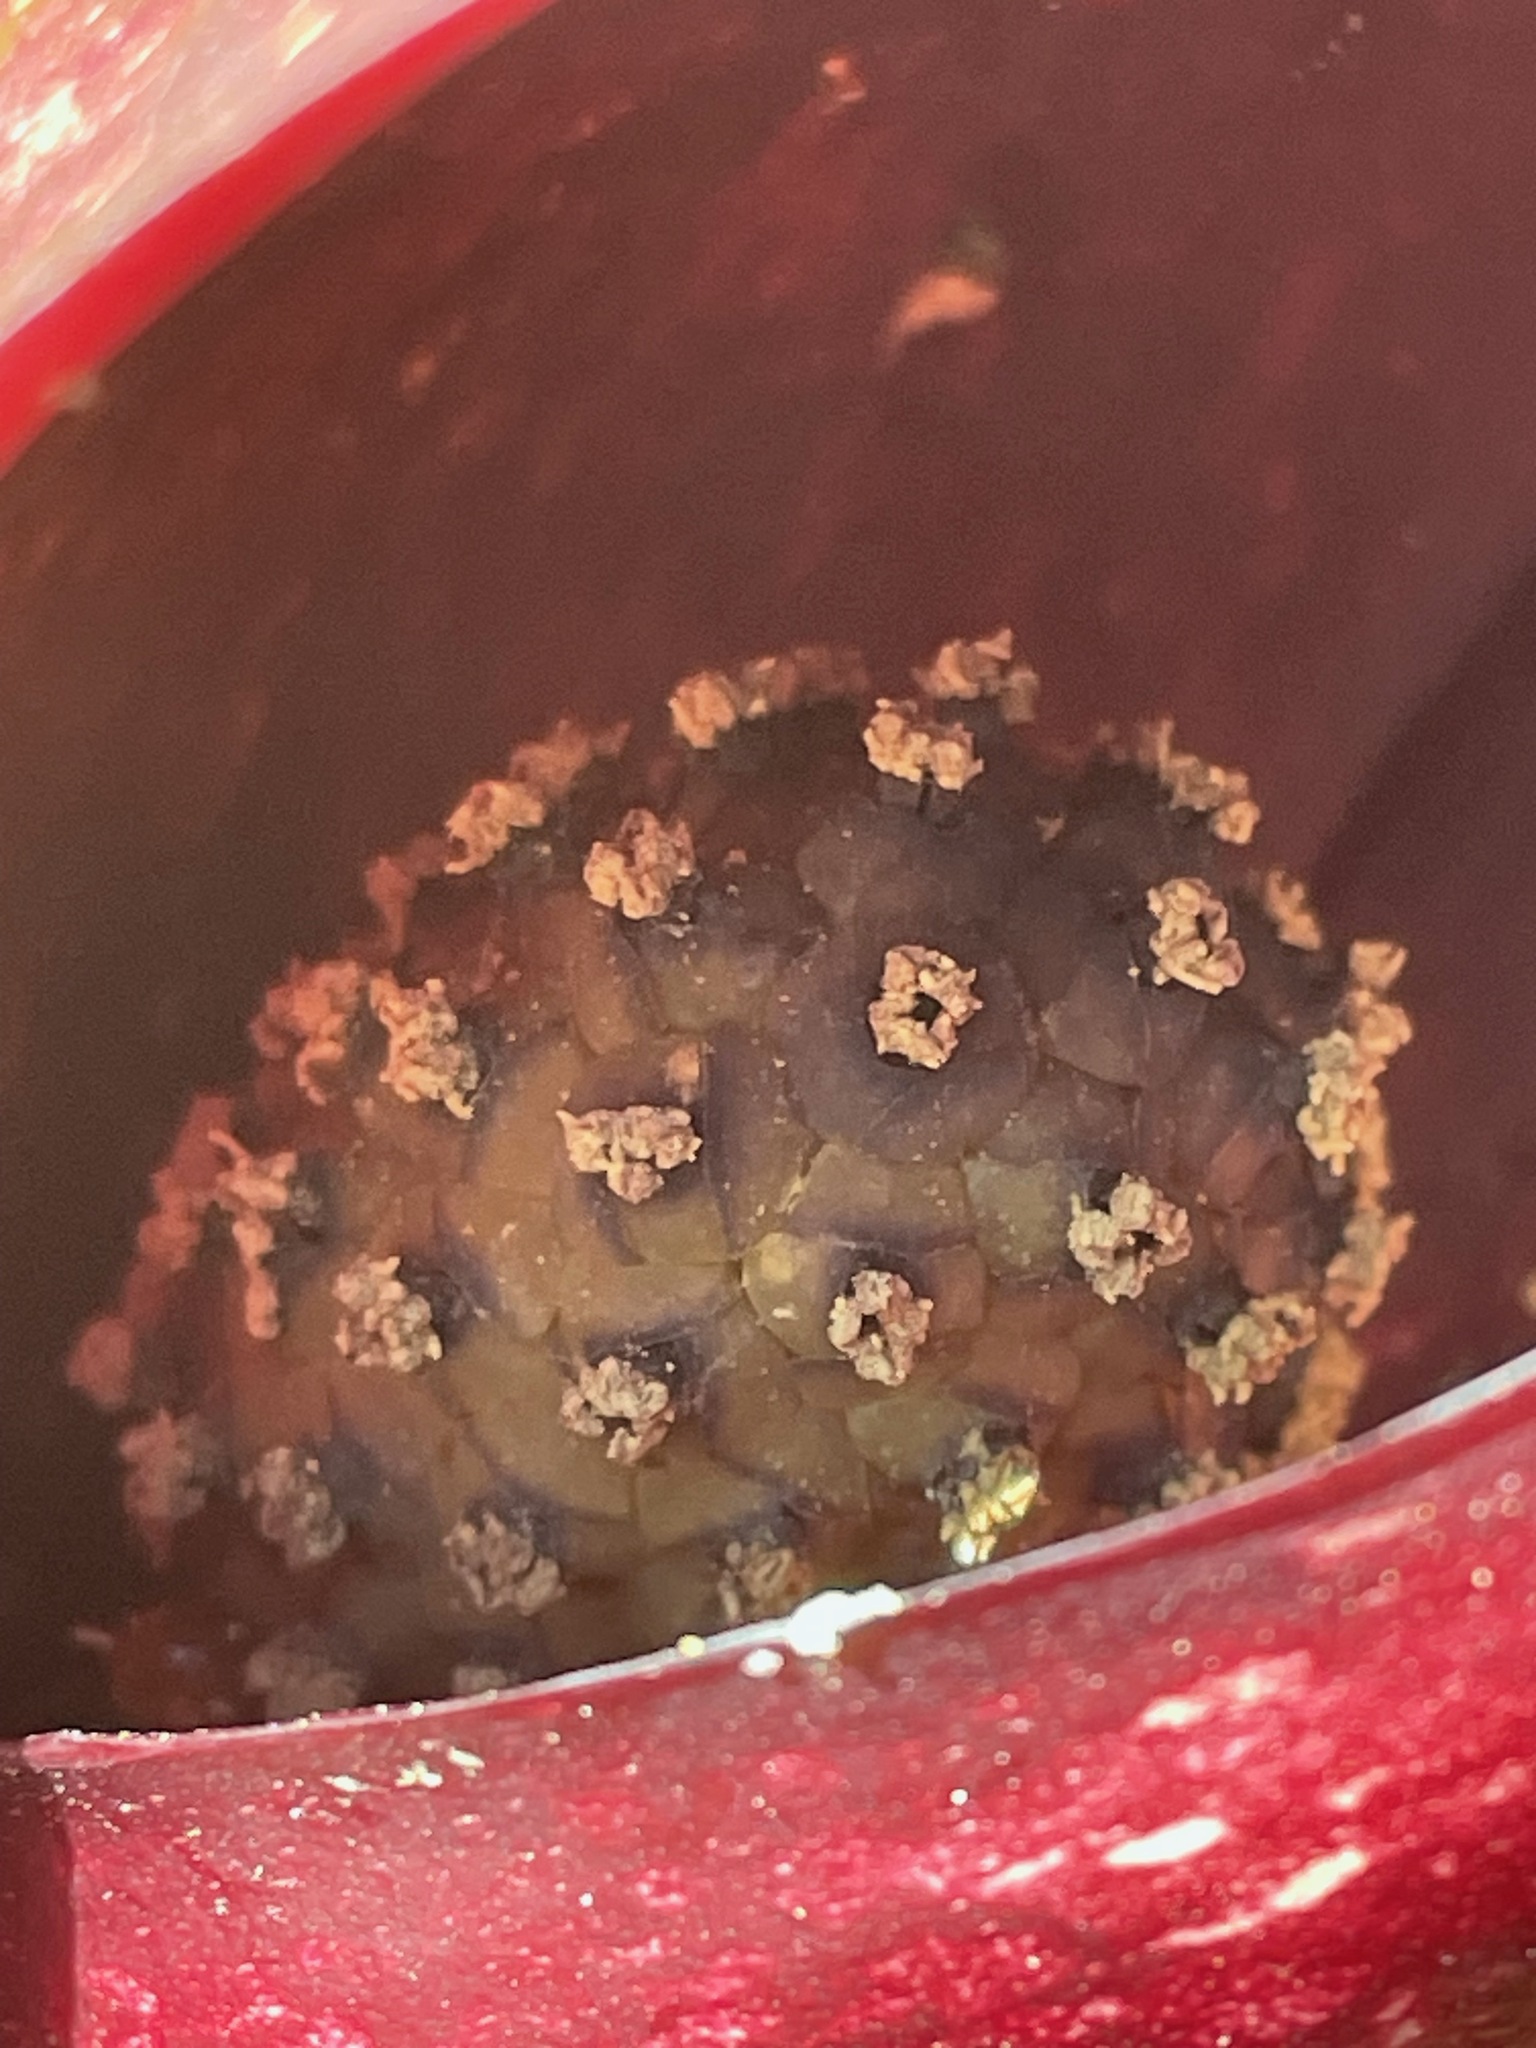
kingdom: Plantae
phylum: Tracheophyta
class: Liliopsida
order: Alismatales
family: Araceae
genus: Symplocarpus
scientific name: Symplocarpus foetidus
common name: Eastern skunk cabbage
